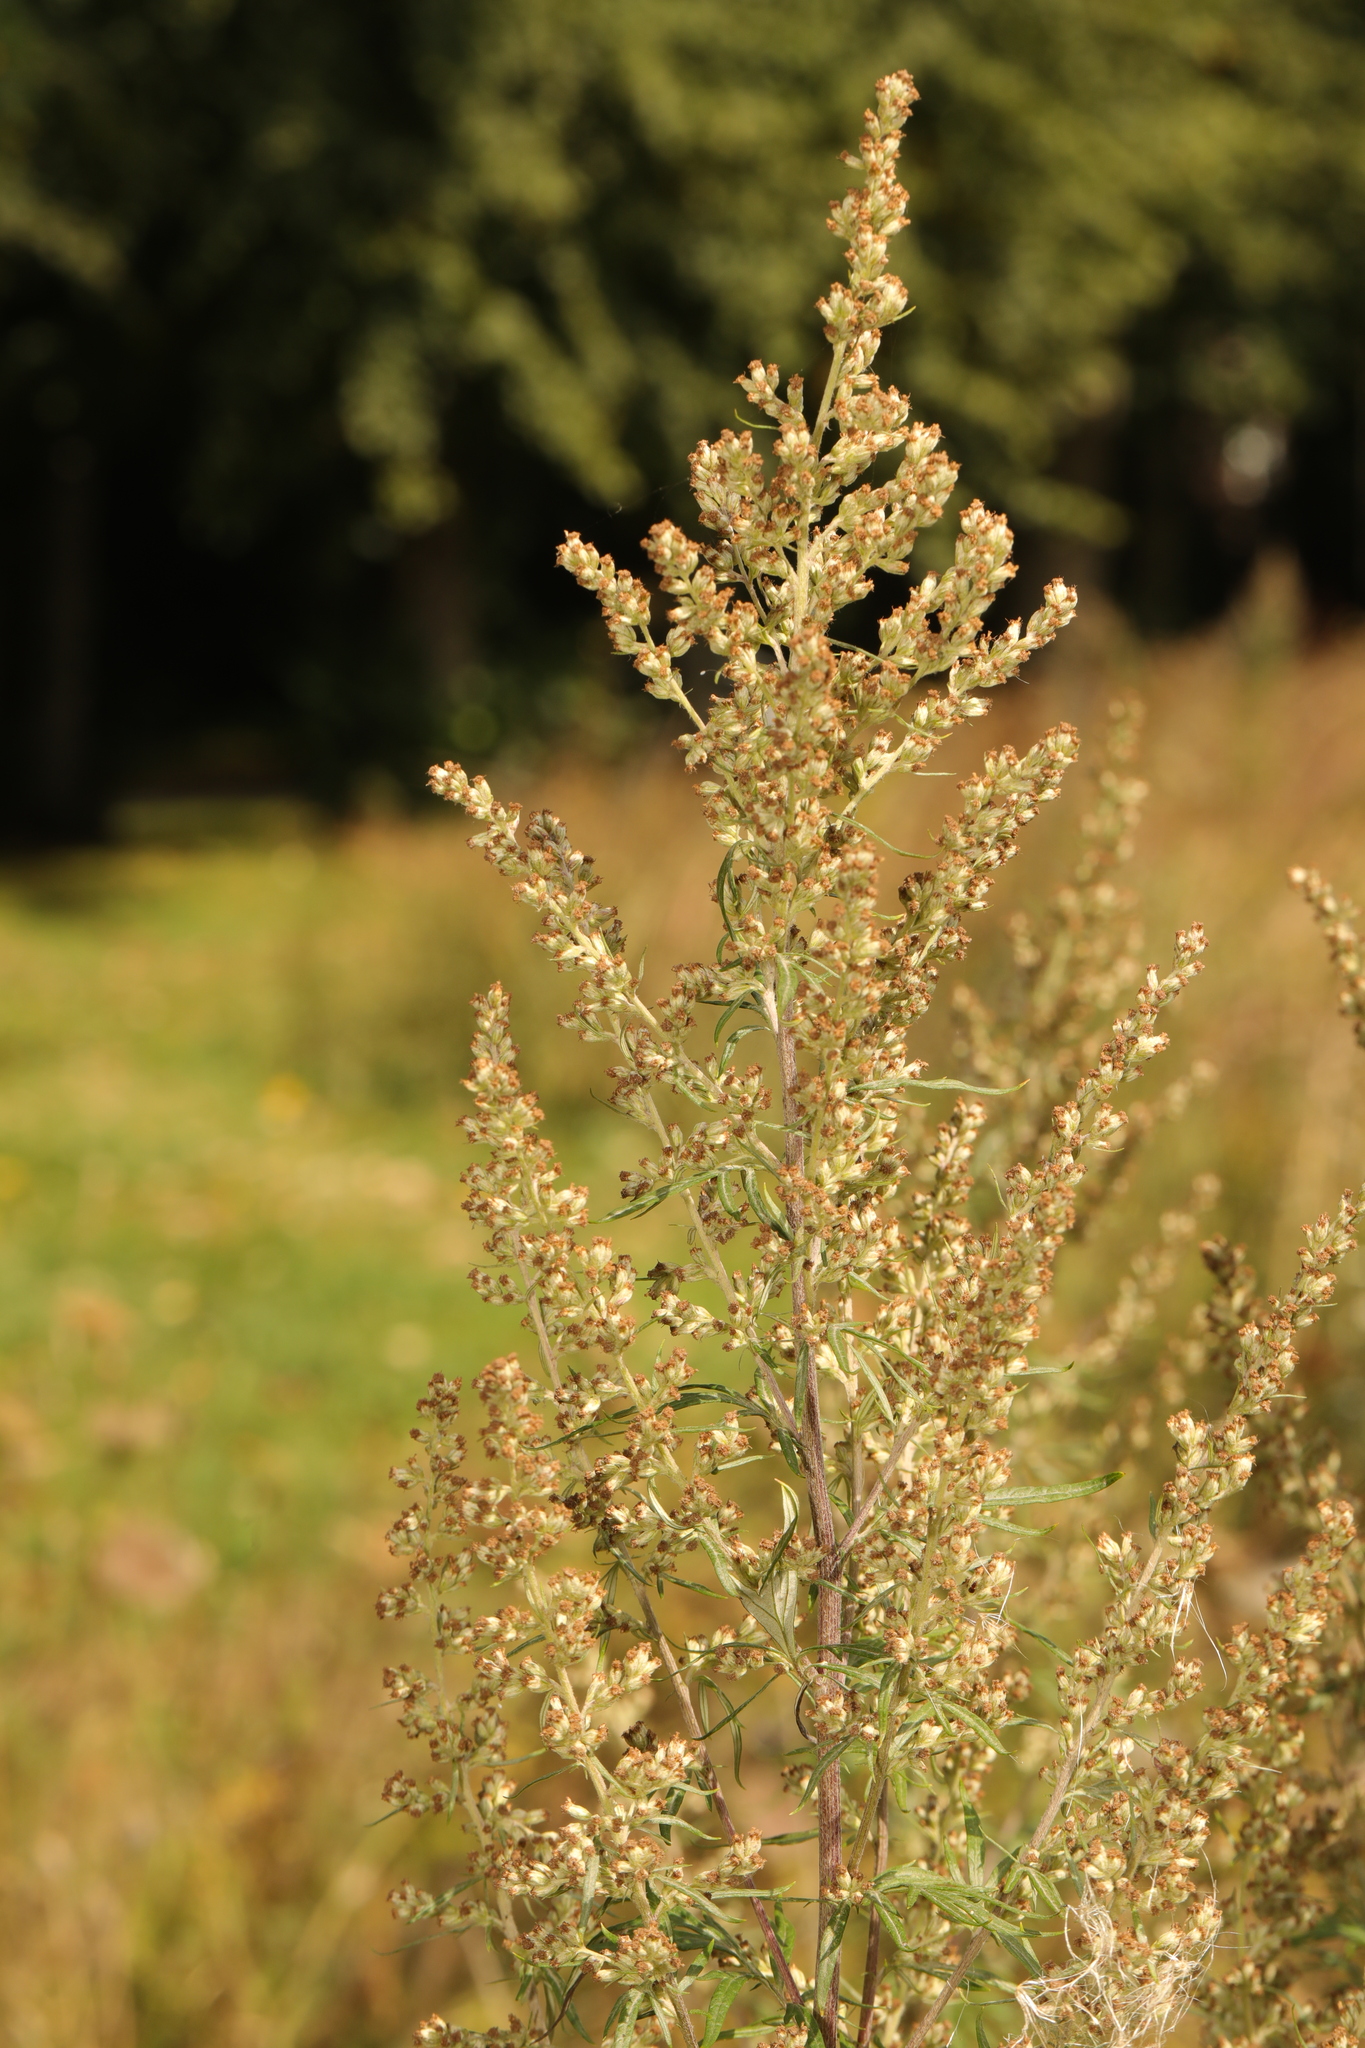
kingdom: Plantae
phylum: Tracheophyta
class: Magnoliopsida
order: Asterales
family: Asteraceae
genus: Artemisia
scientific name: Artemisia vulgaris
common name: Mugwort
